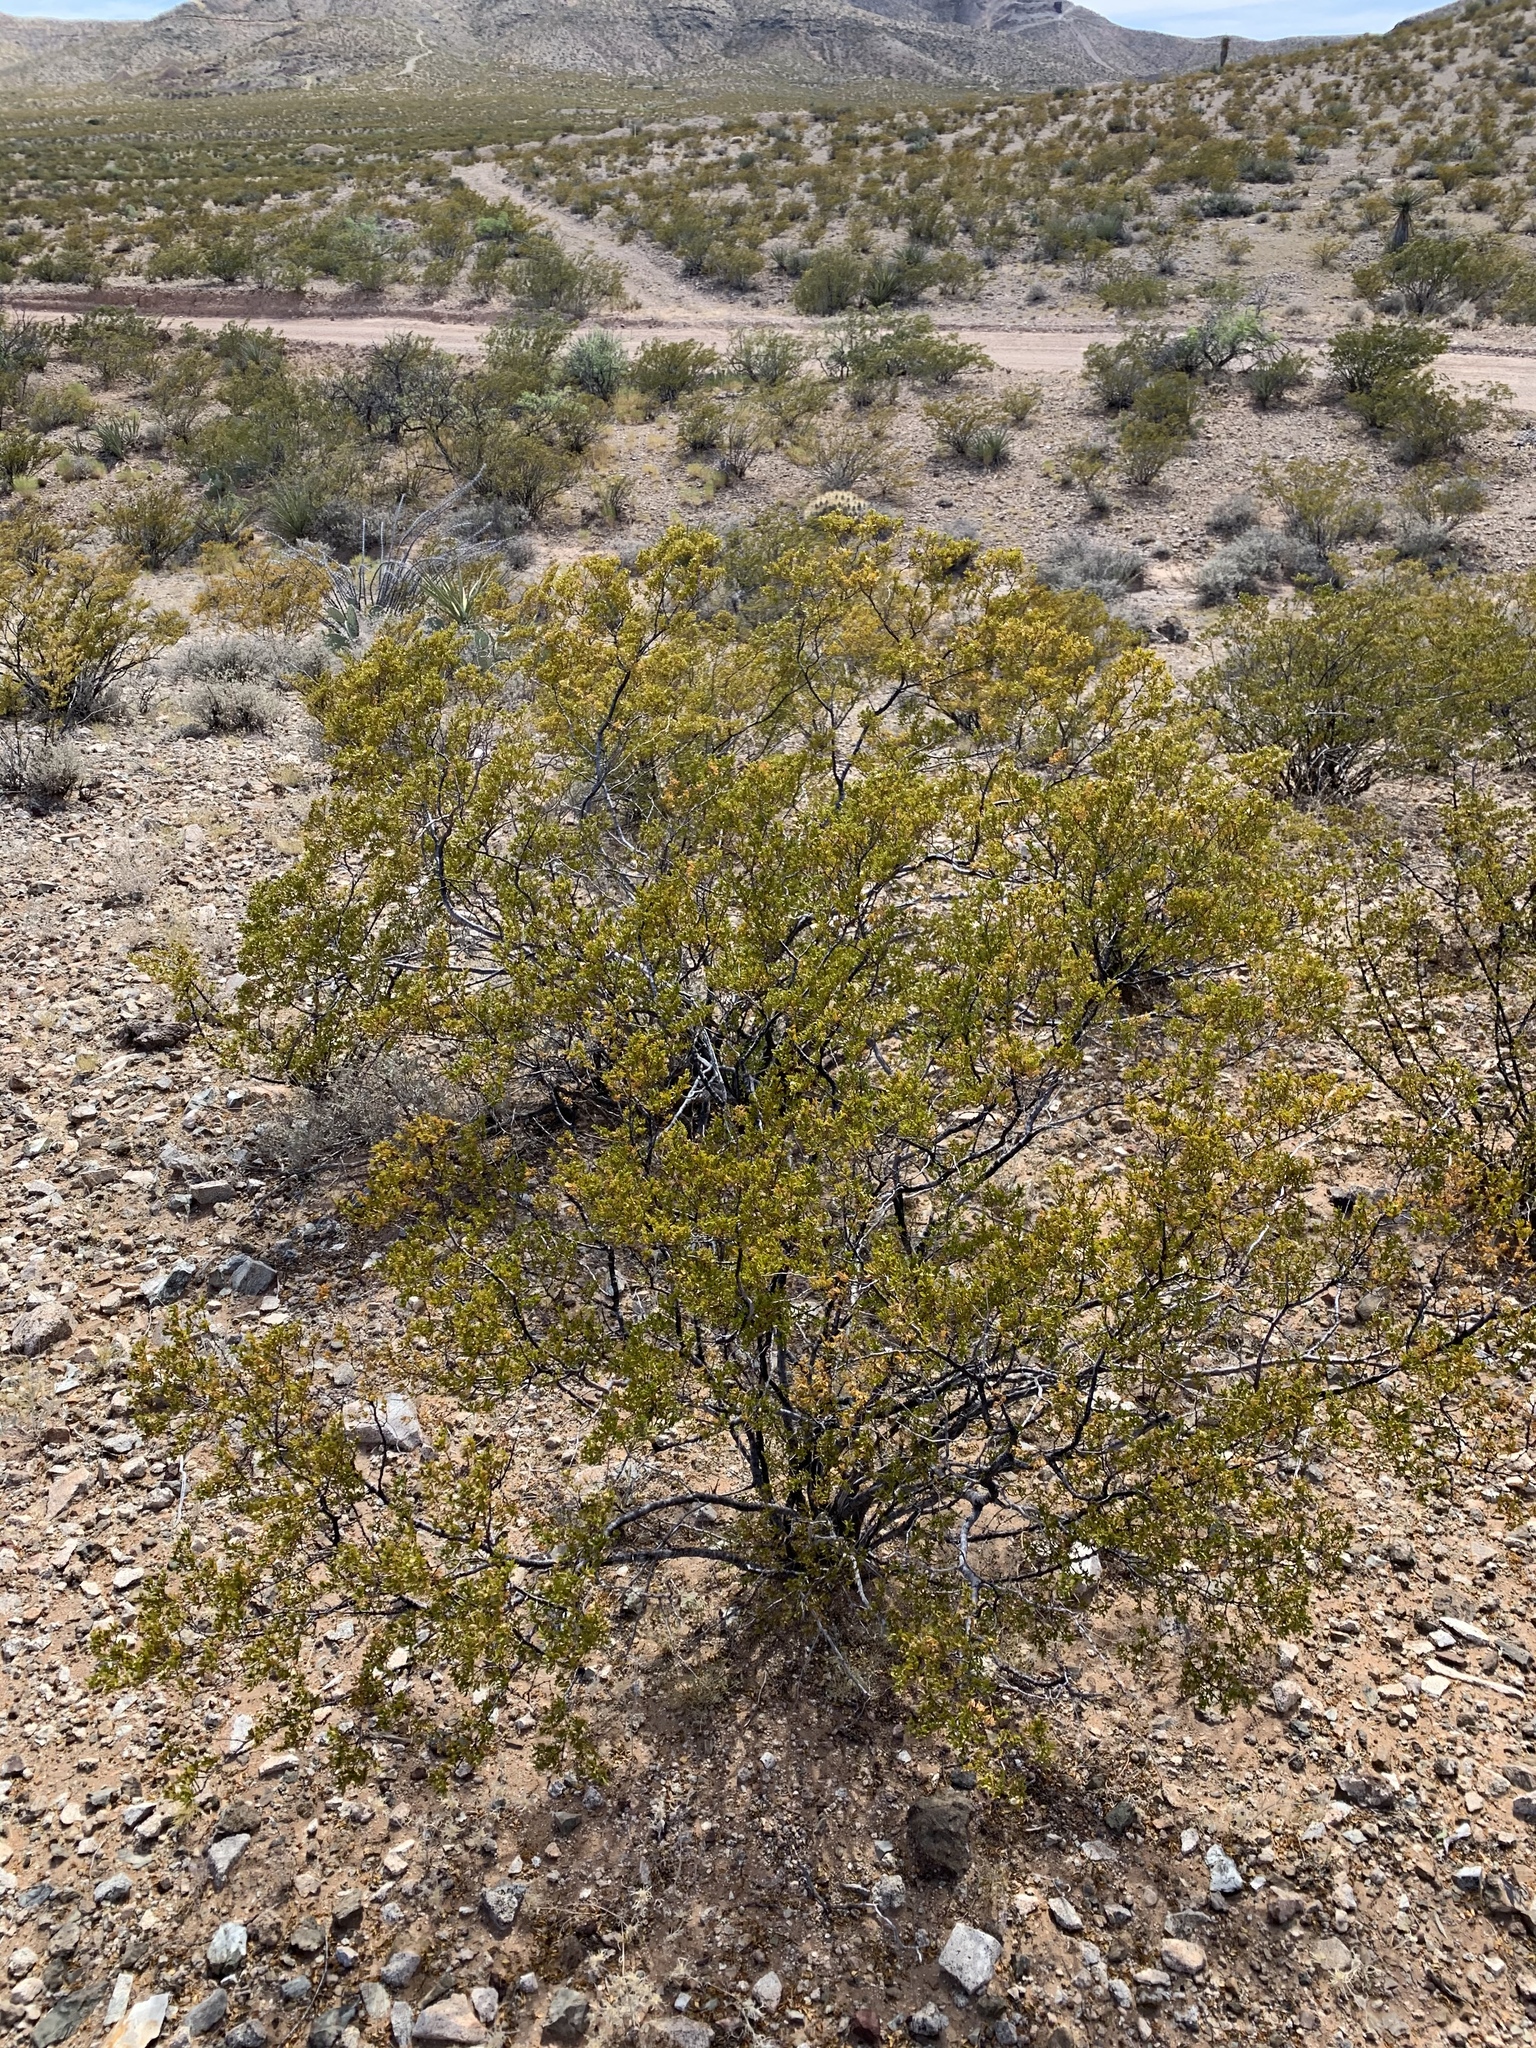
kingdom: Plantae
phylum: Tracheophyta
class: Magnoliopsida
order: Zygophyllales
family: Zygophyllaceae
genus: Larrea
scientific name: Larrea tridentata
